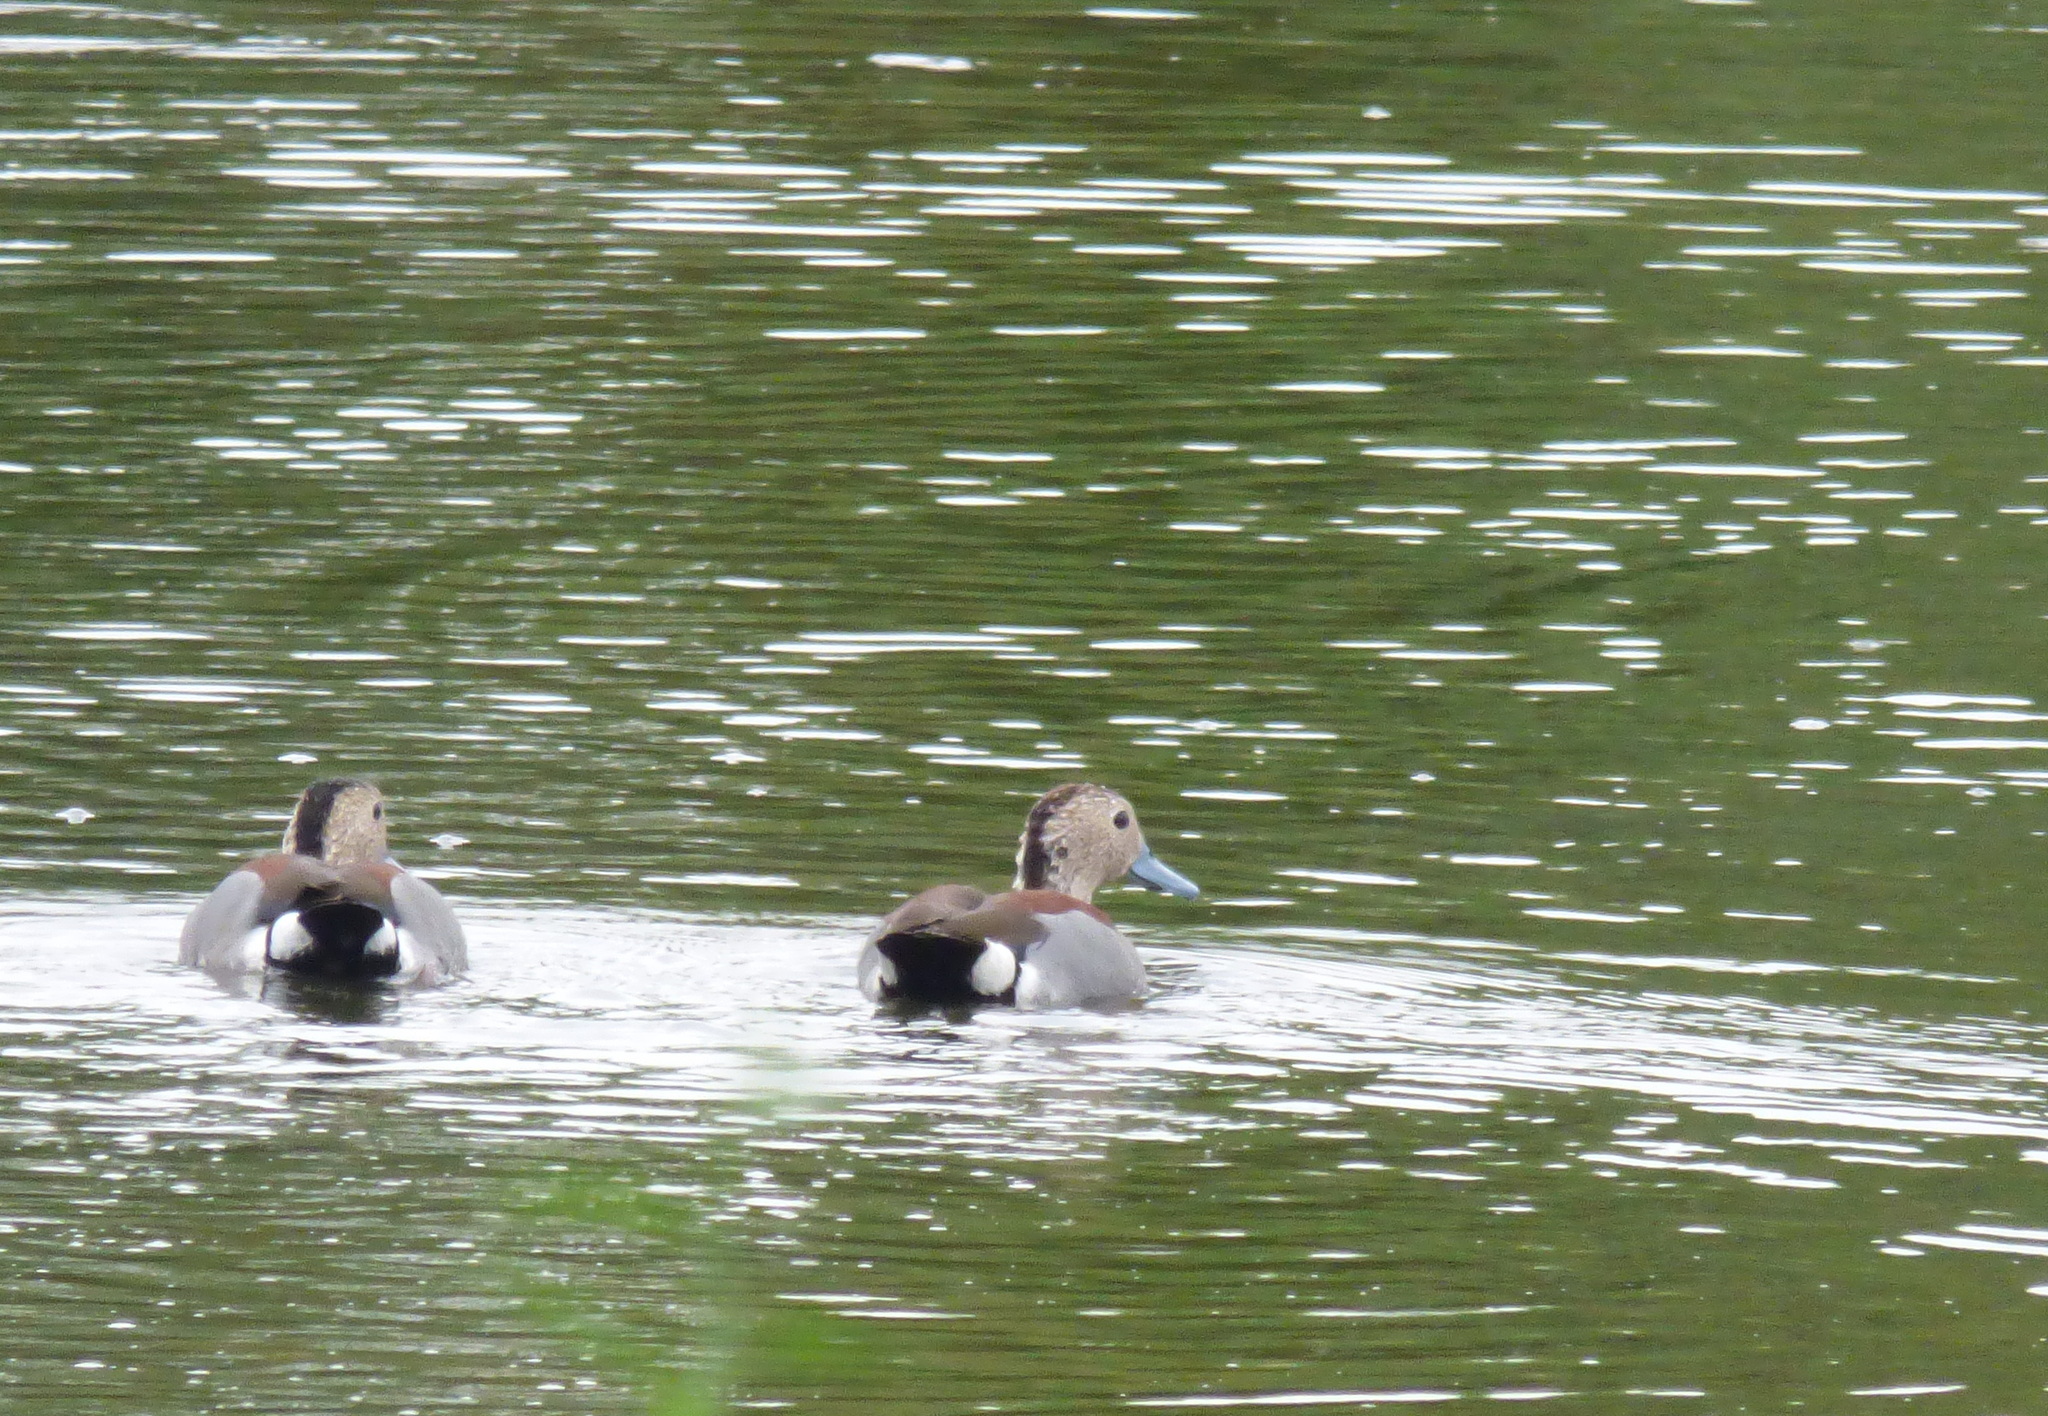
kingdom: Animalia
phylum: Chordata
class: Aves
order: Anseriformes
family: Anatidae
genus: Callonetta
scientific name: Callonetta leucophrys
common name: Ringed teal
